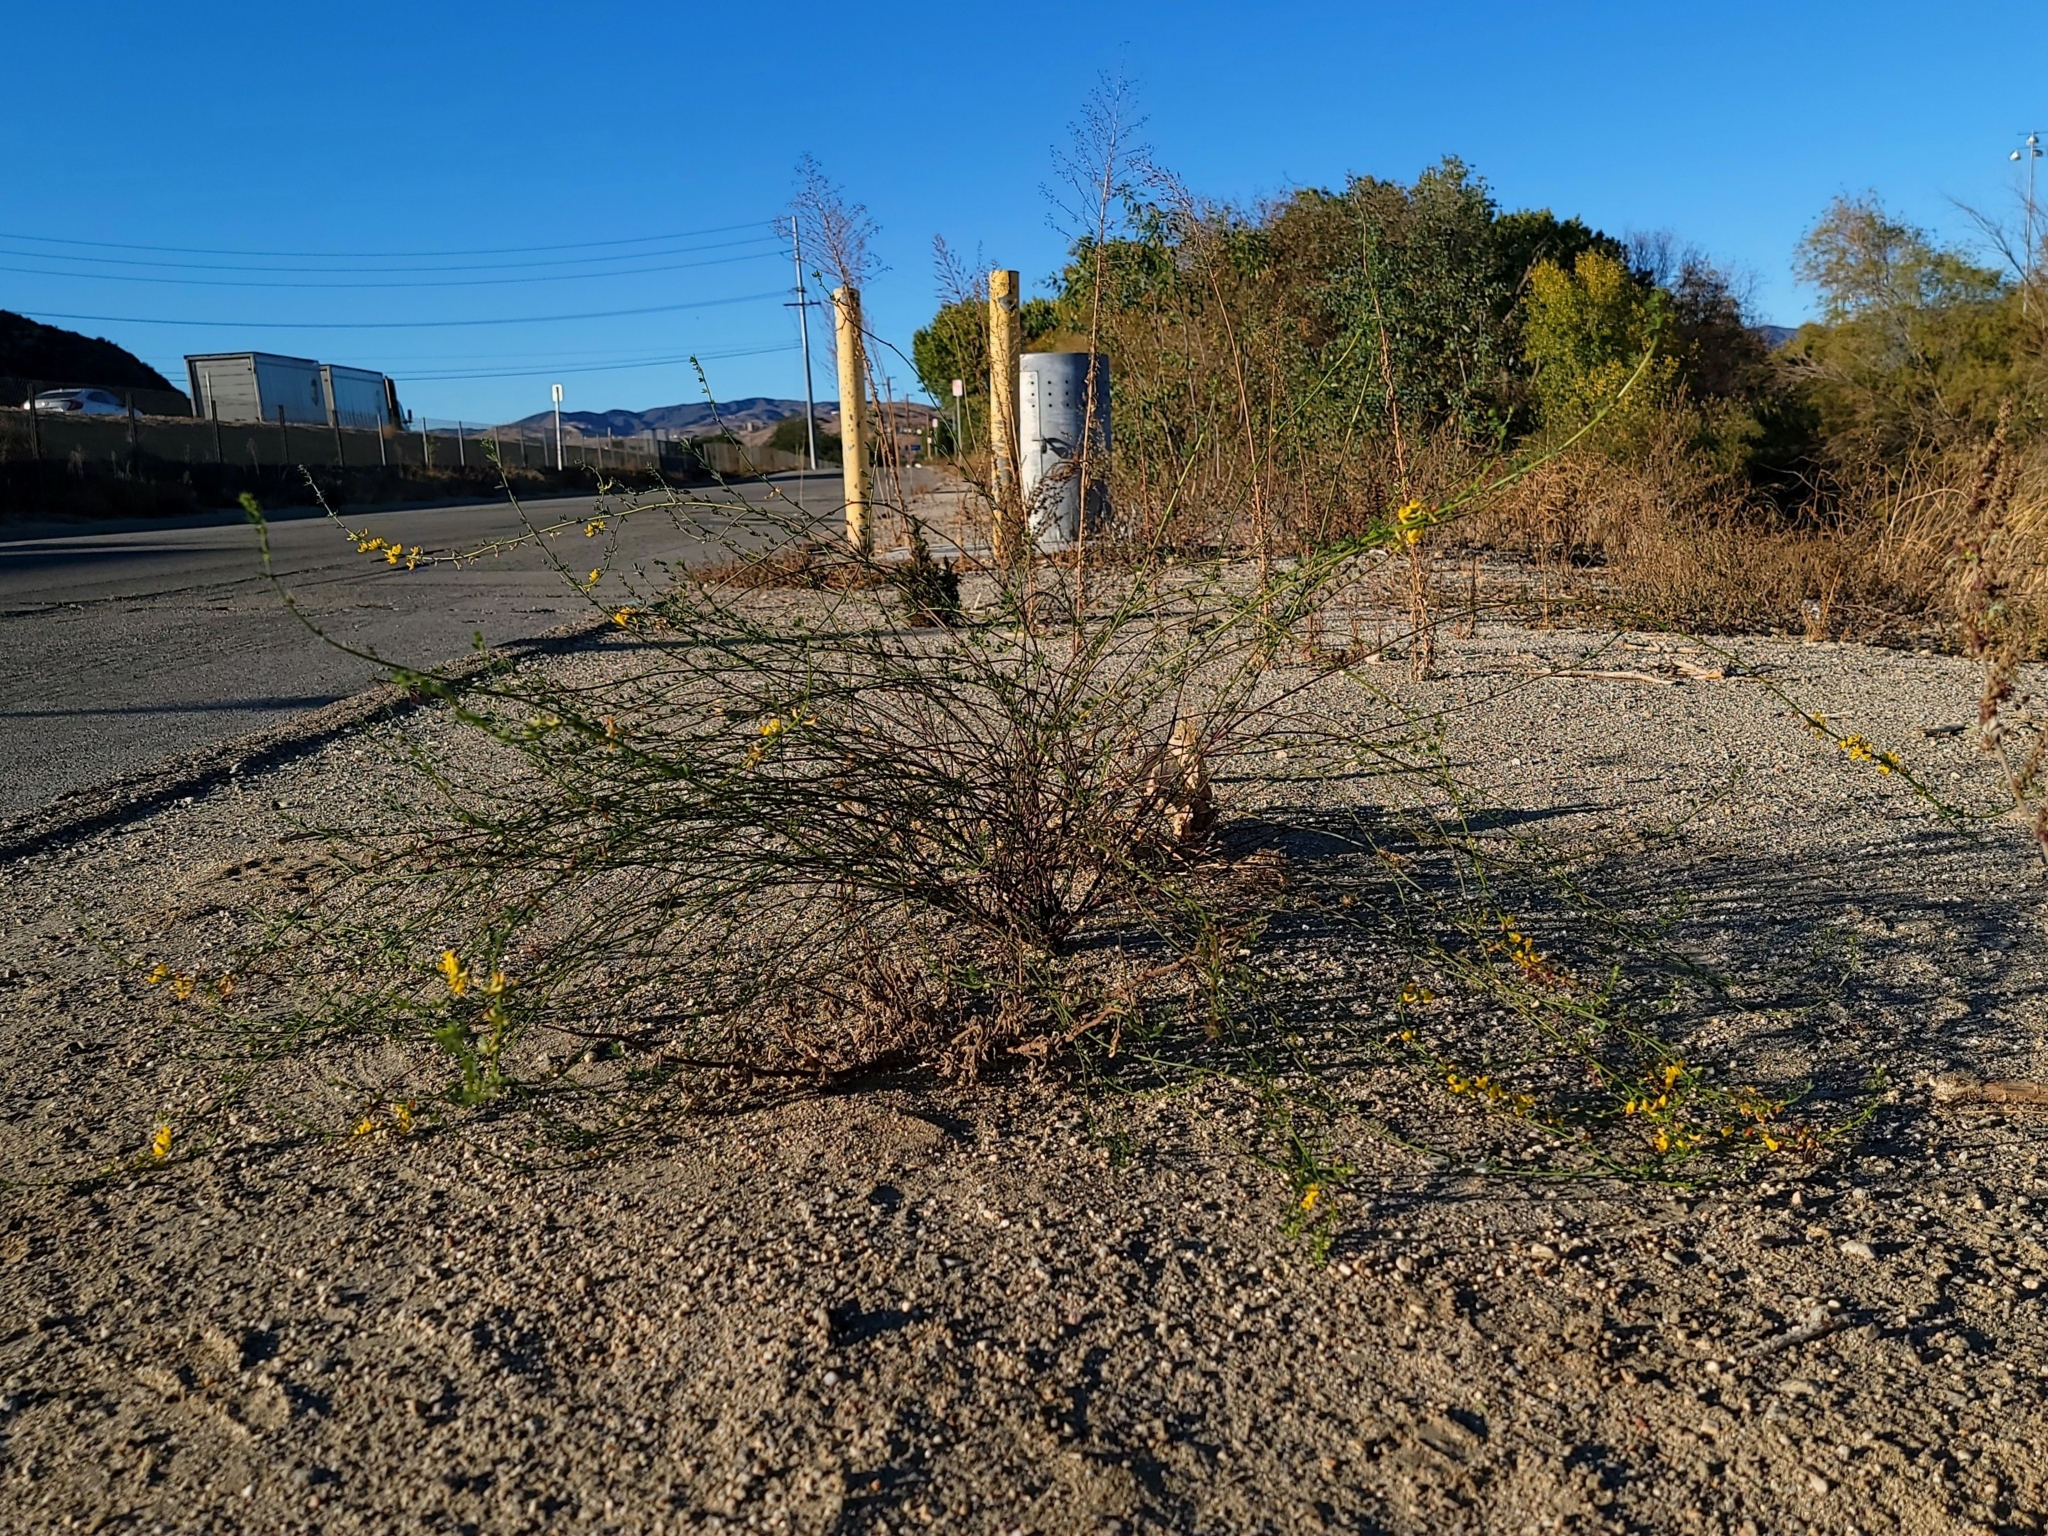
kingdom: Plantae
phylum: Tracheophyta
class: Magnoliopsida
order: Fabales
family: Fabaceae
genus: Acmispon
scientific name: Acmispon glaber
